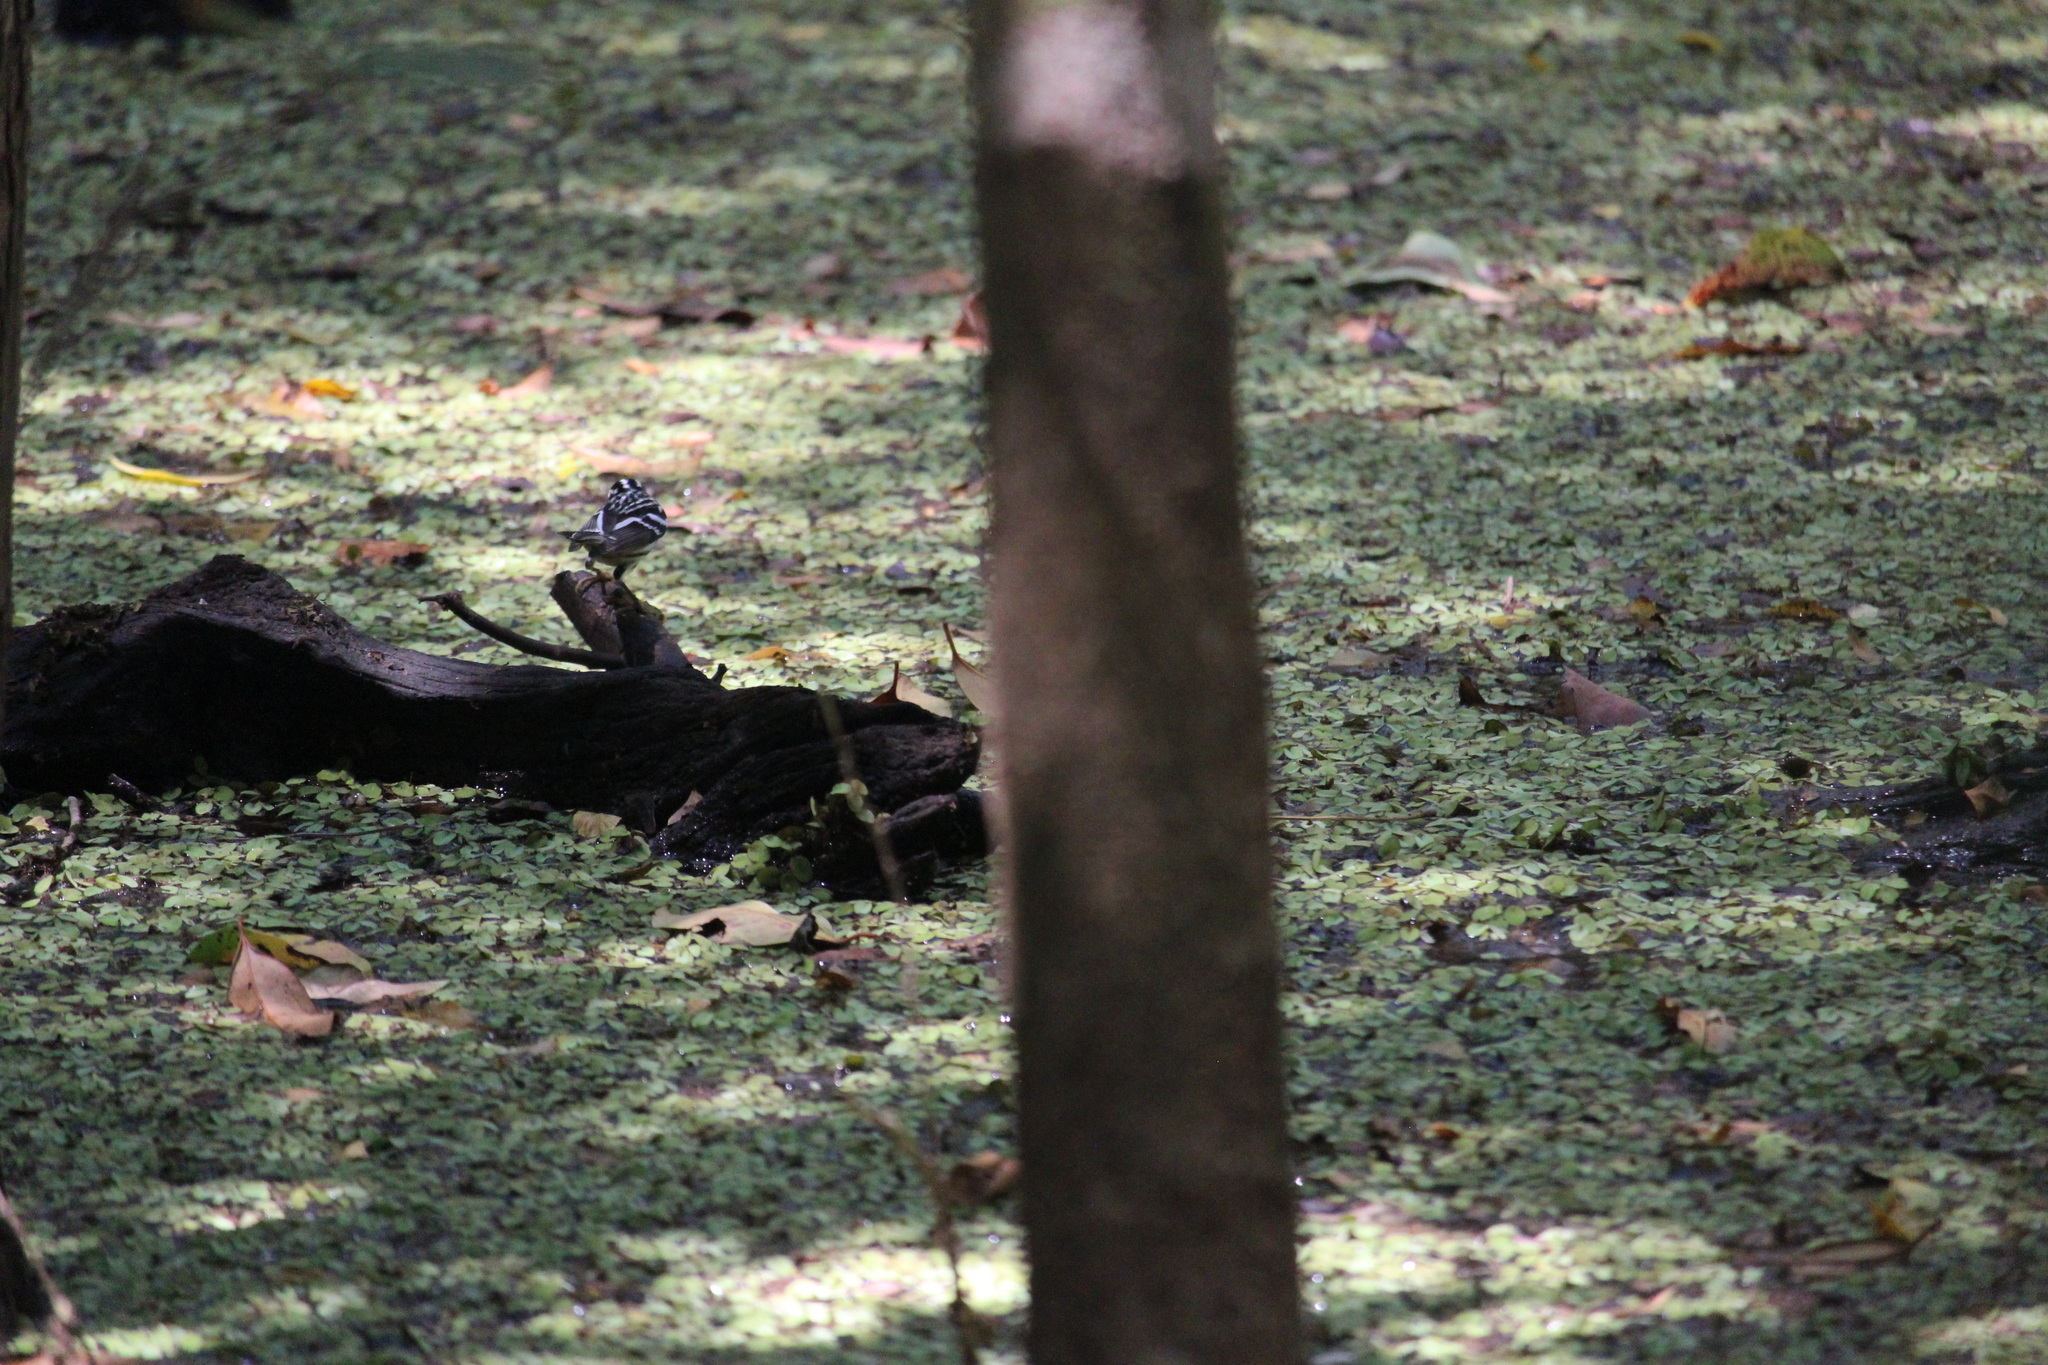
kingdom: Animalia
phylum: Chordata
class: Aves
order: Passeriformes
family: Parulidae
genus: Mniotilta
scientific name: Mniotilta varia
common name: Black-and-white warbler
